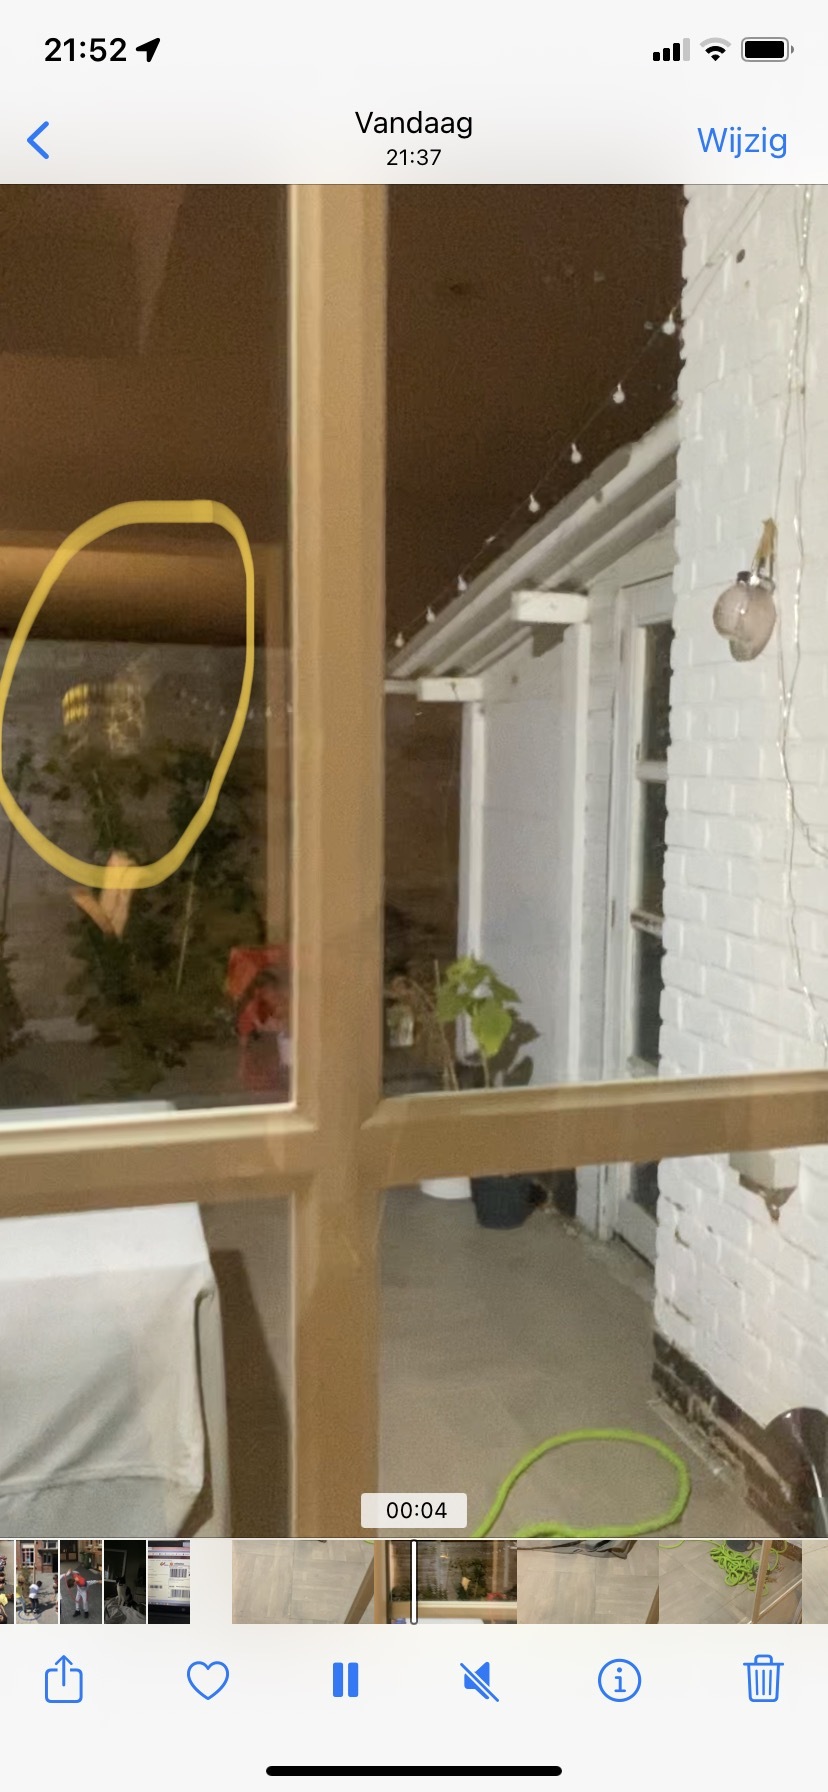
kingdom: Animalia
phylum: Arthropoda
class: Insecta
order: Hymenoptera
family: Vespidae
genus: Vespa
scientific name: Vespa crabro
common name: Hornet
